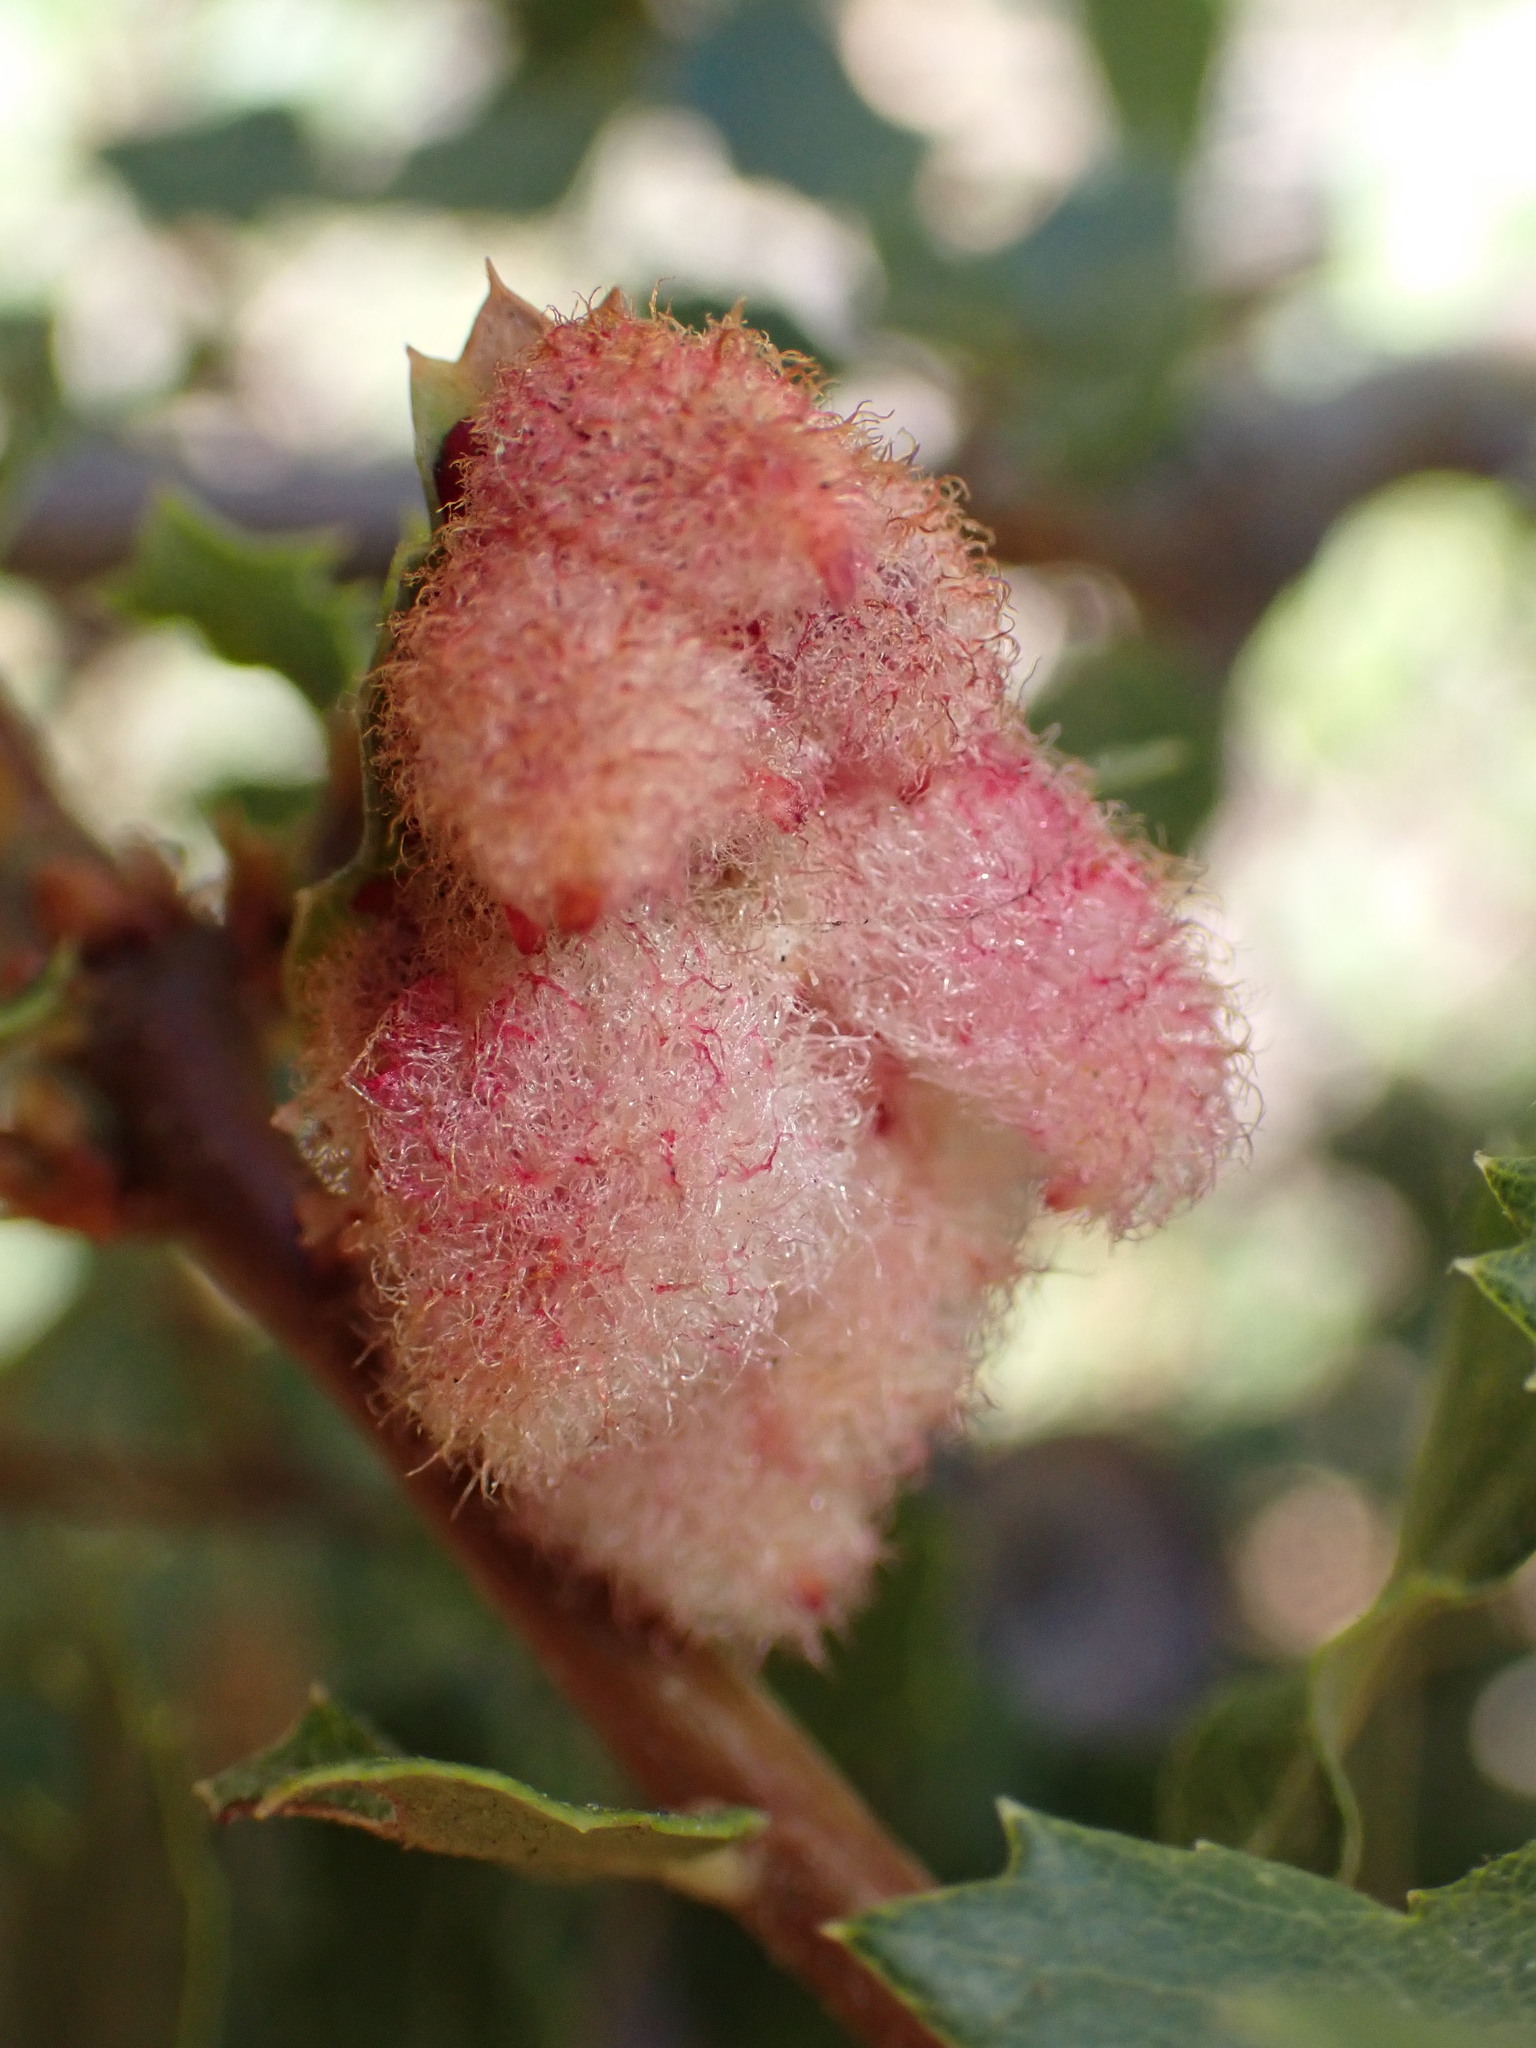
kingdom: Animalia
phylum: Arthropoda
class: Insecta
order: Hymenoptera
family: Cynipidae
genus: Andricus
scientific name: Andricus
